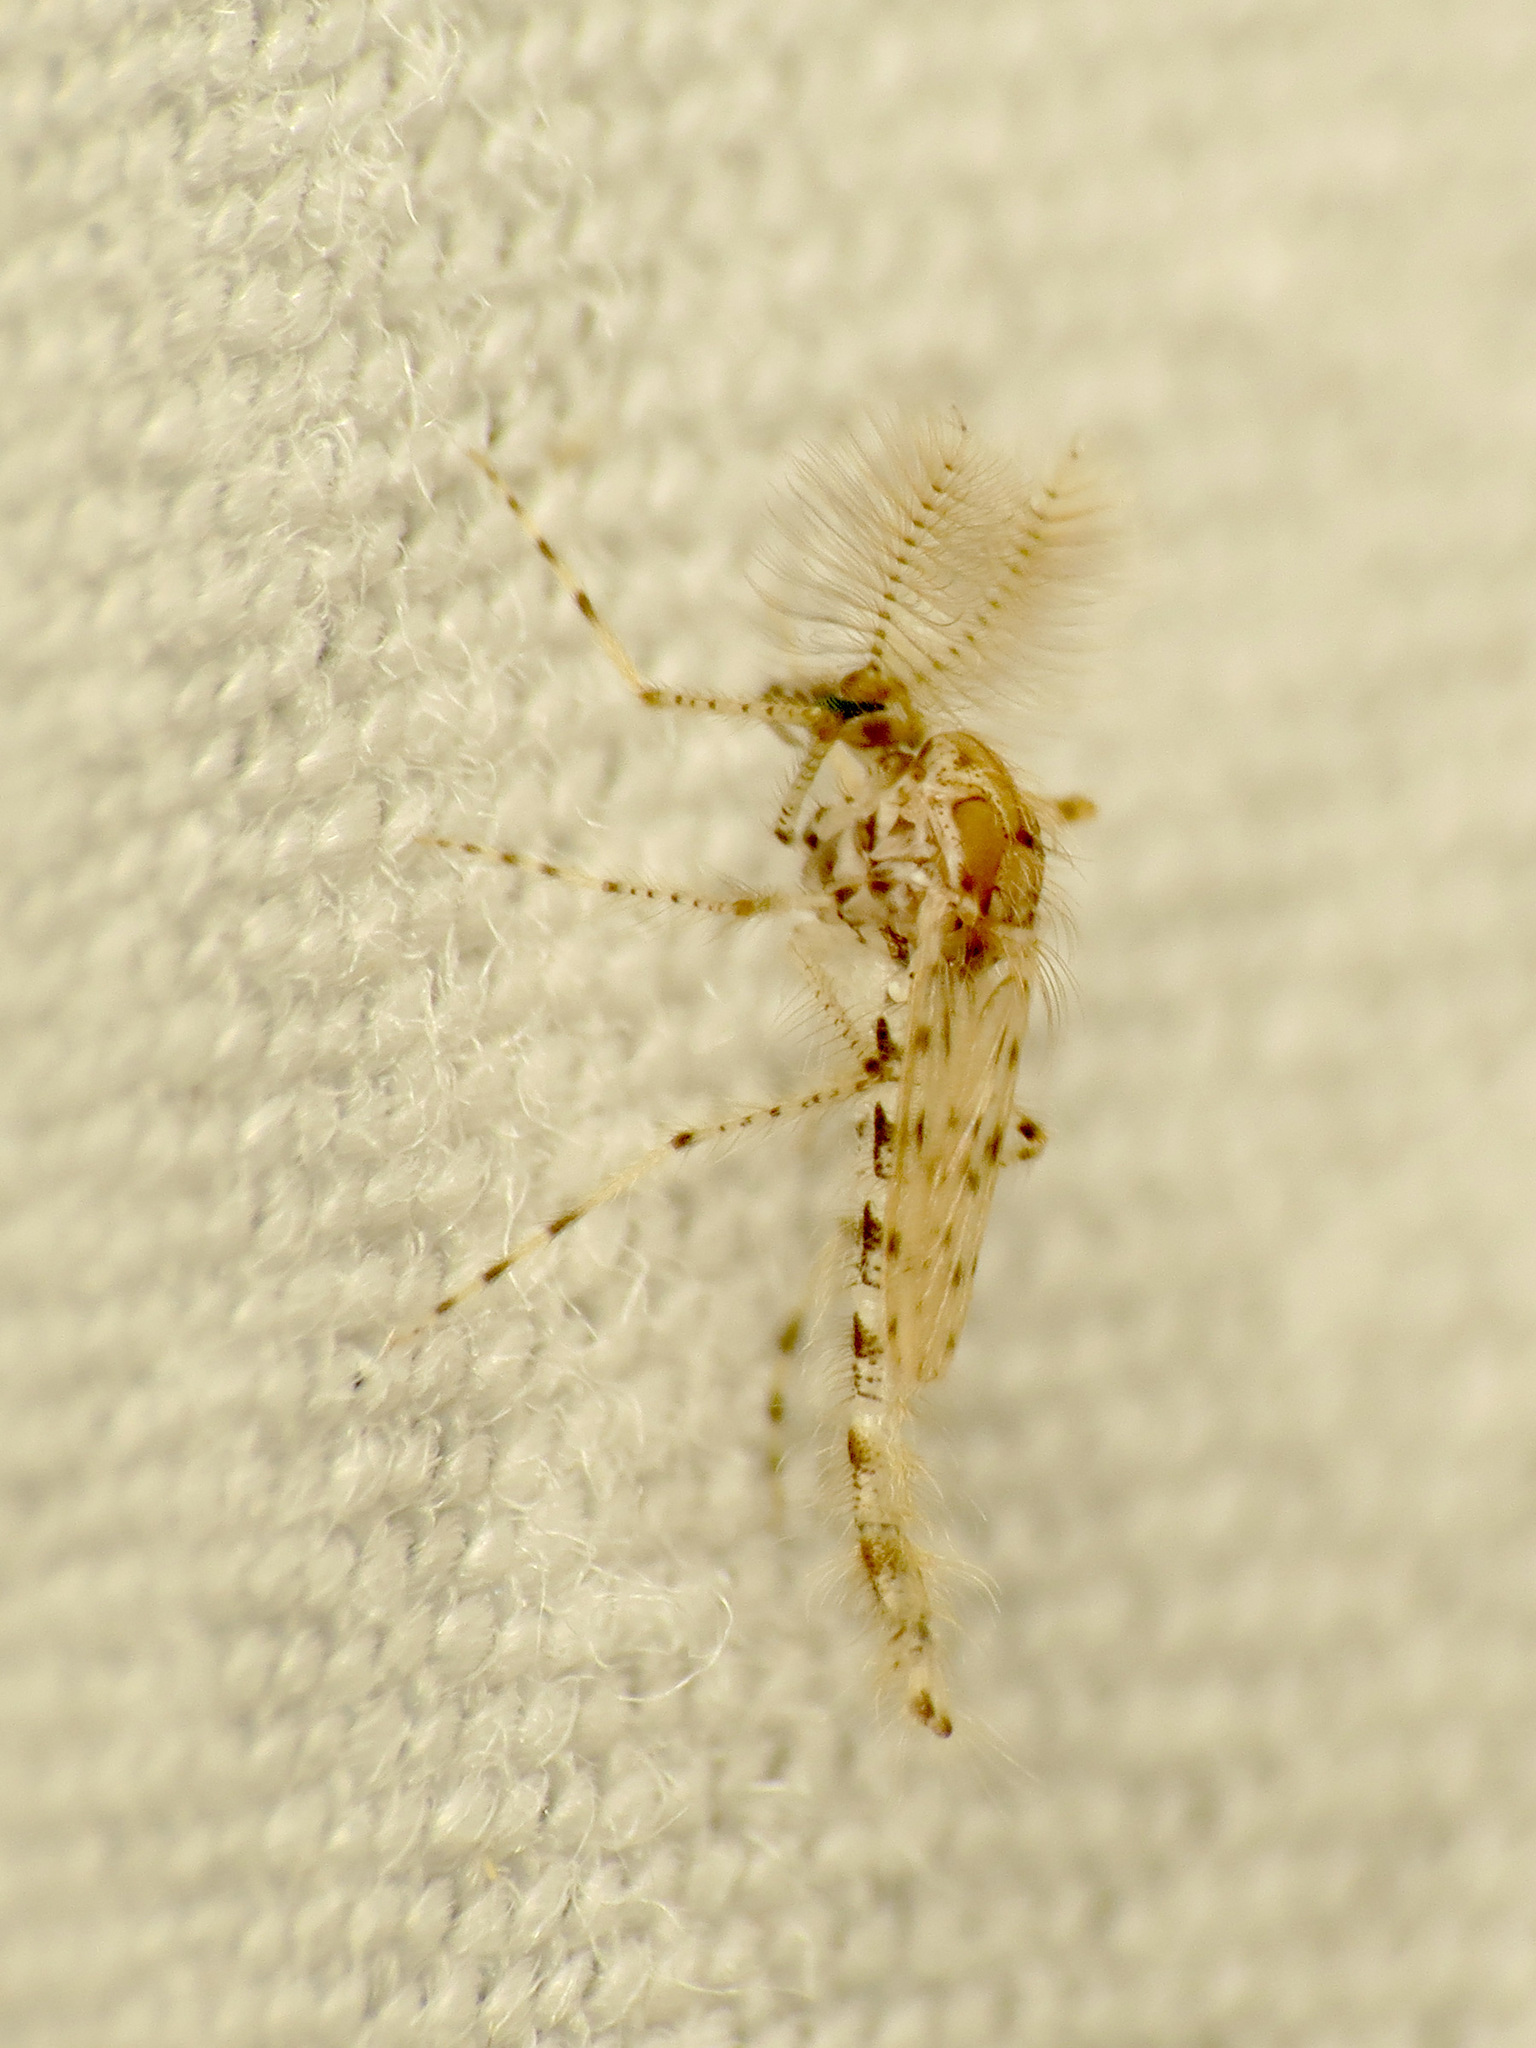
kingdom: Animalia
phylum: Arthropoda
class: Insecta
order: Diptera
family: Chaoboridae
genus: Chaoborus
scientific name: Chaoborus punctipennis
